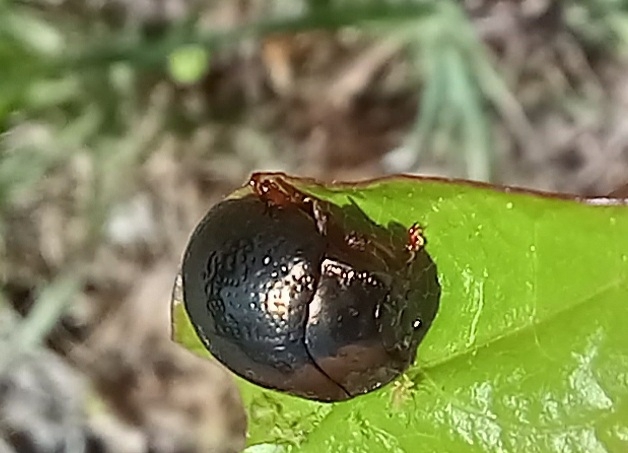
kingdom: Animalia
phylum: Arthropoda
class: Insecta
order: Coleoptera
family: Chrysomelidae
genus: Chrysolina
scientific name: Chrysolina bankii
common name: Leaf beetle
